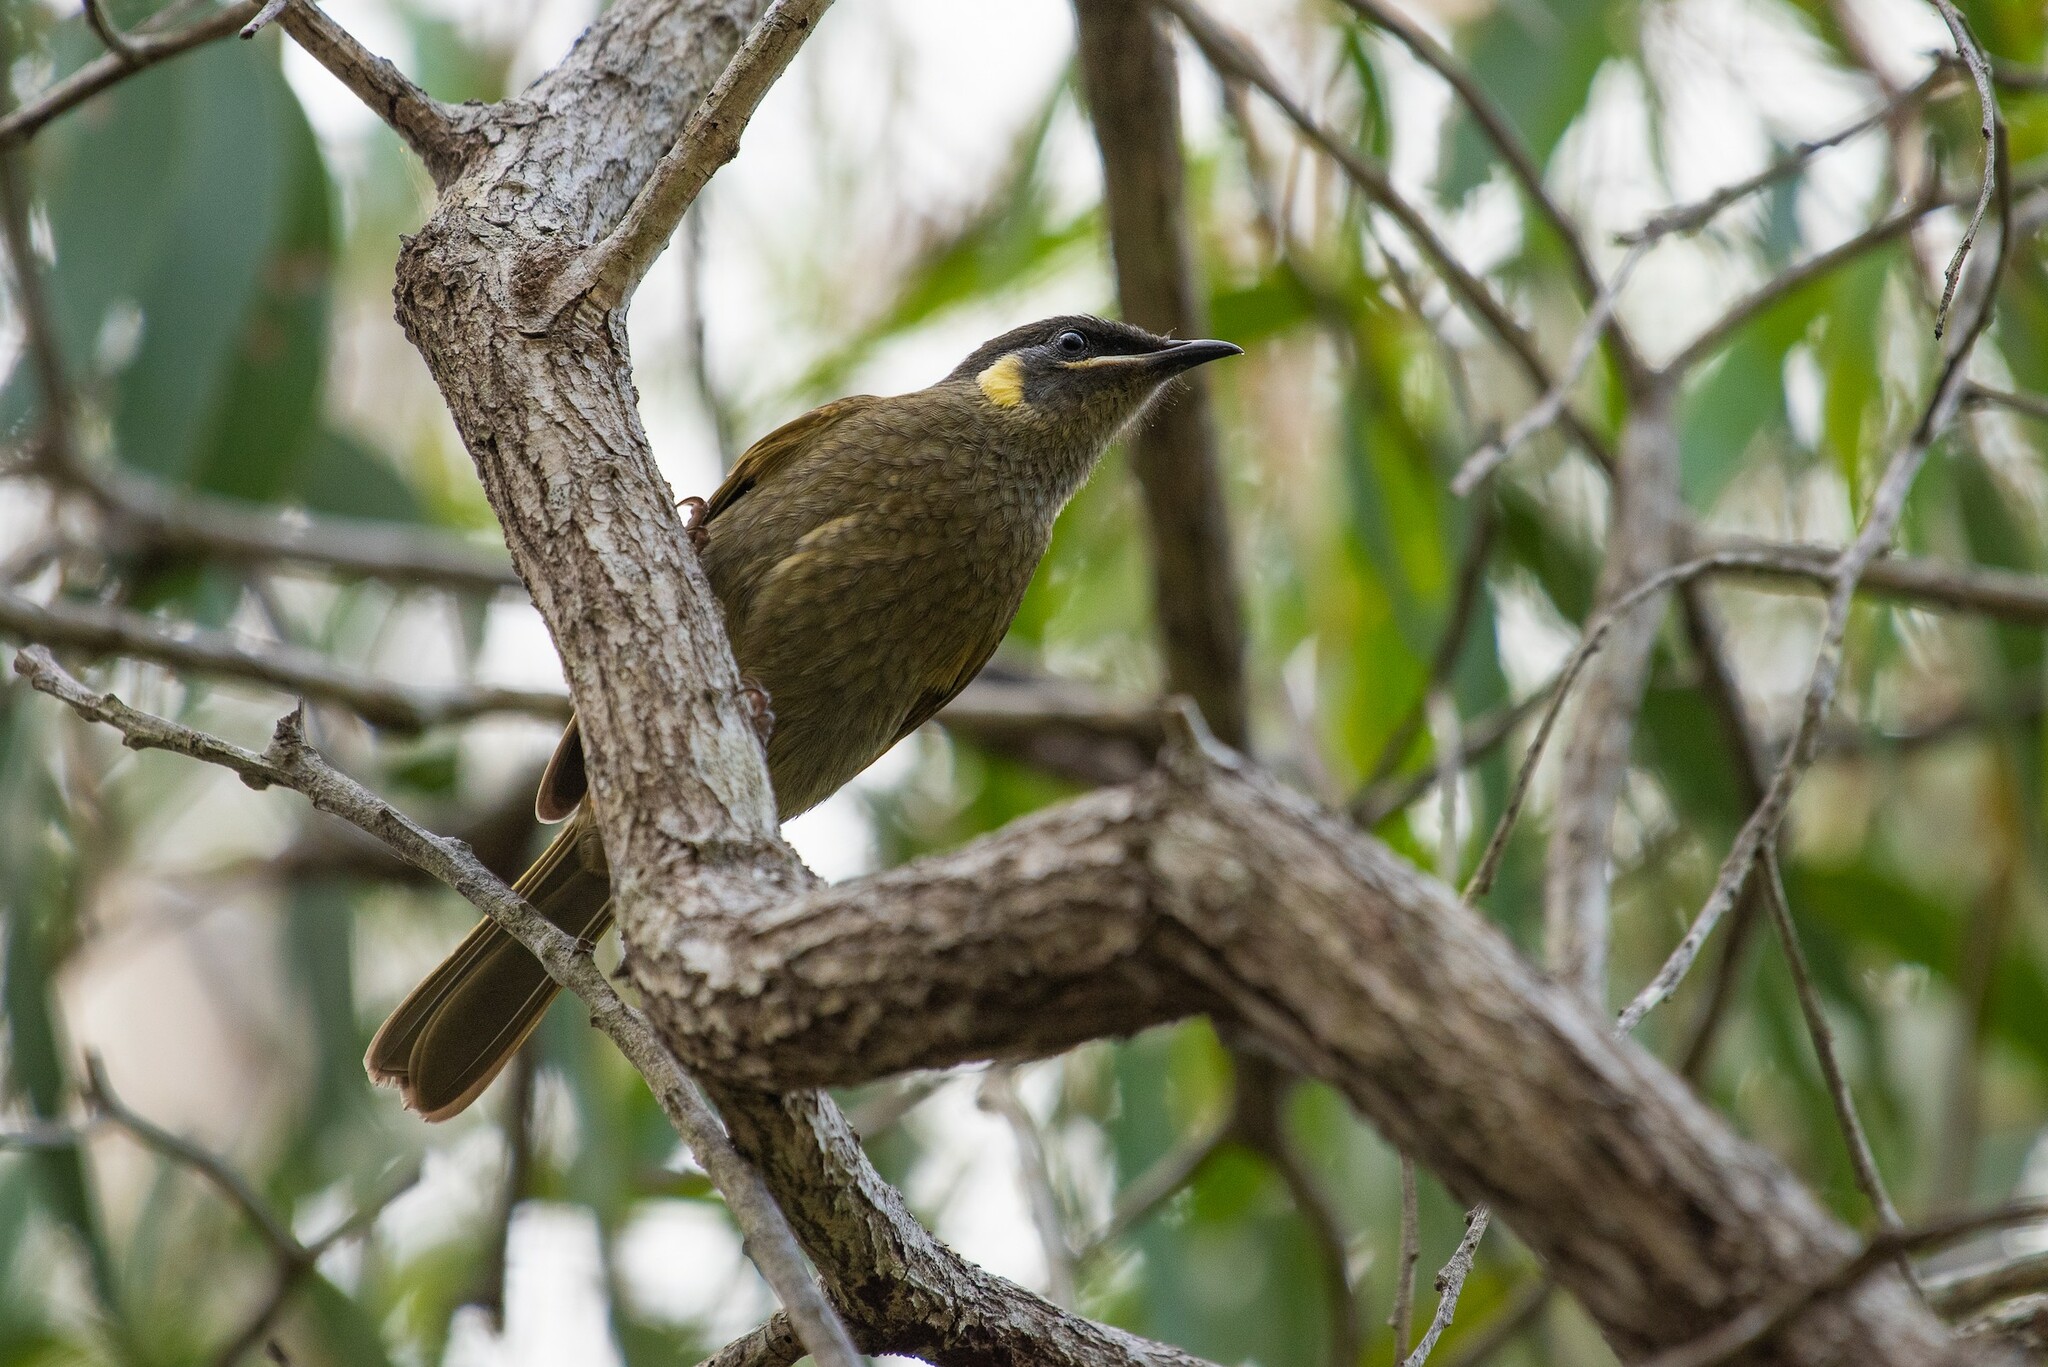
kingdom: Animalia
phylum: Chordata
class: Aves
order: Passeriformes
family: Meliphagidae
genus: Meliphaga
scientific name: Meliphaga lewinii
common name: Lewin's honeyeater
